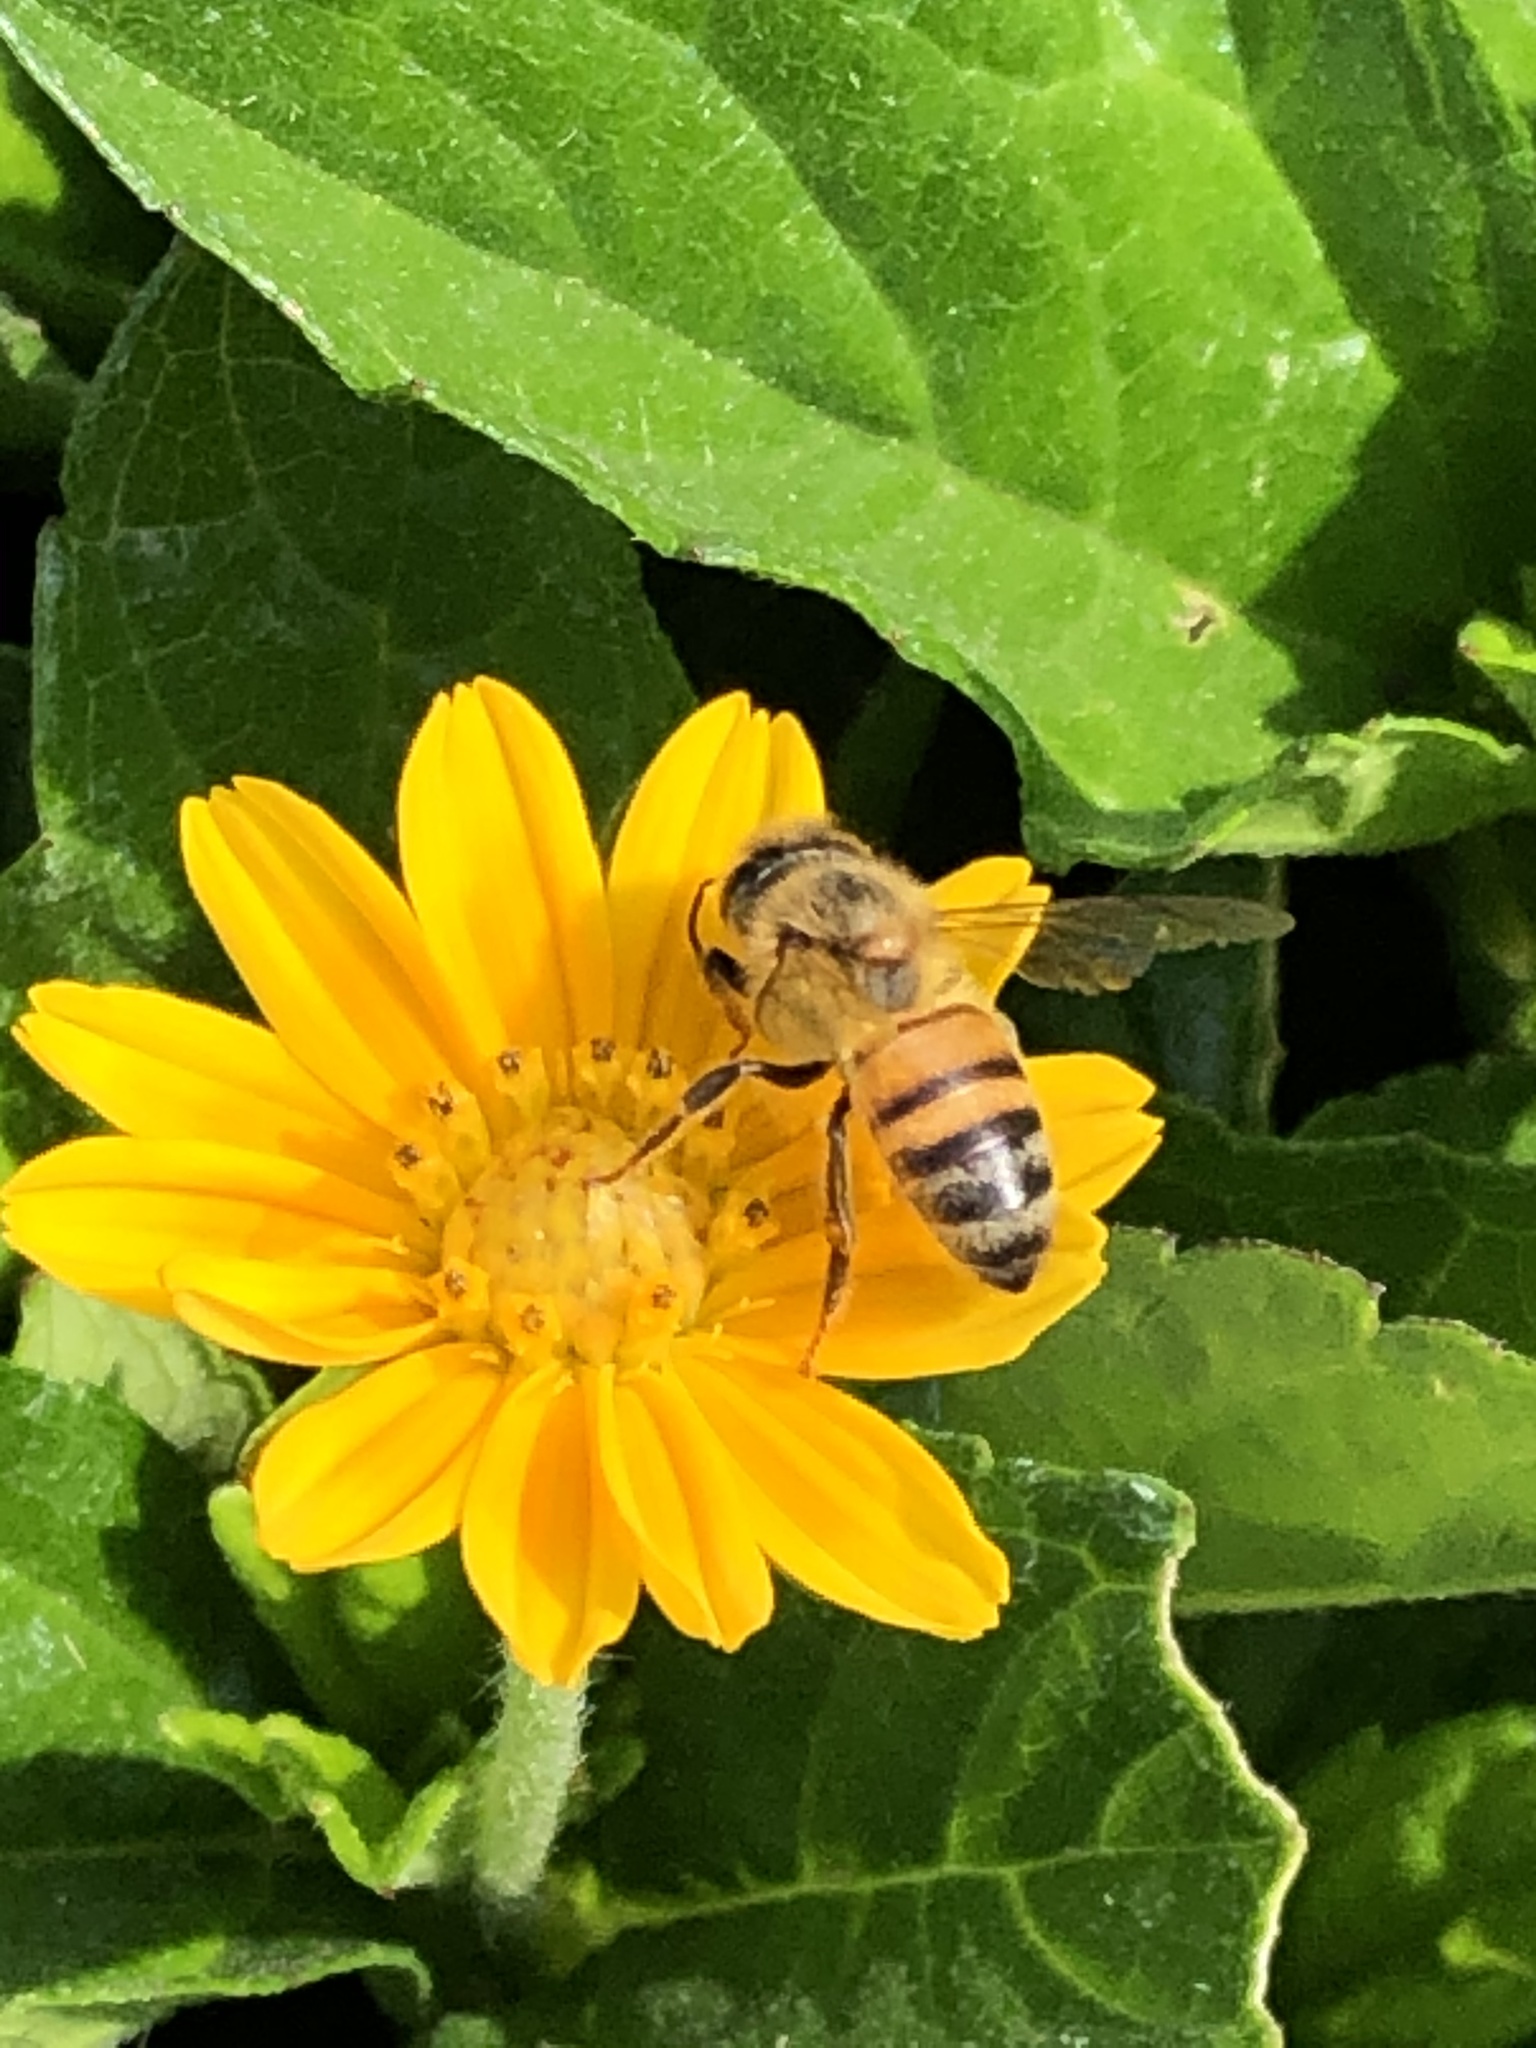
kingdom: Animalia
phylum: Arthropoda
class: Insecta
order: Hymenoptera
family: Apidae
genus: Apis
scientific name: Apis mellifera
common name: Honey bee
